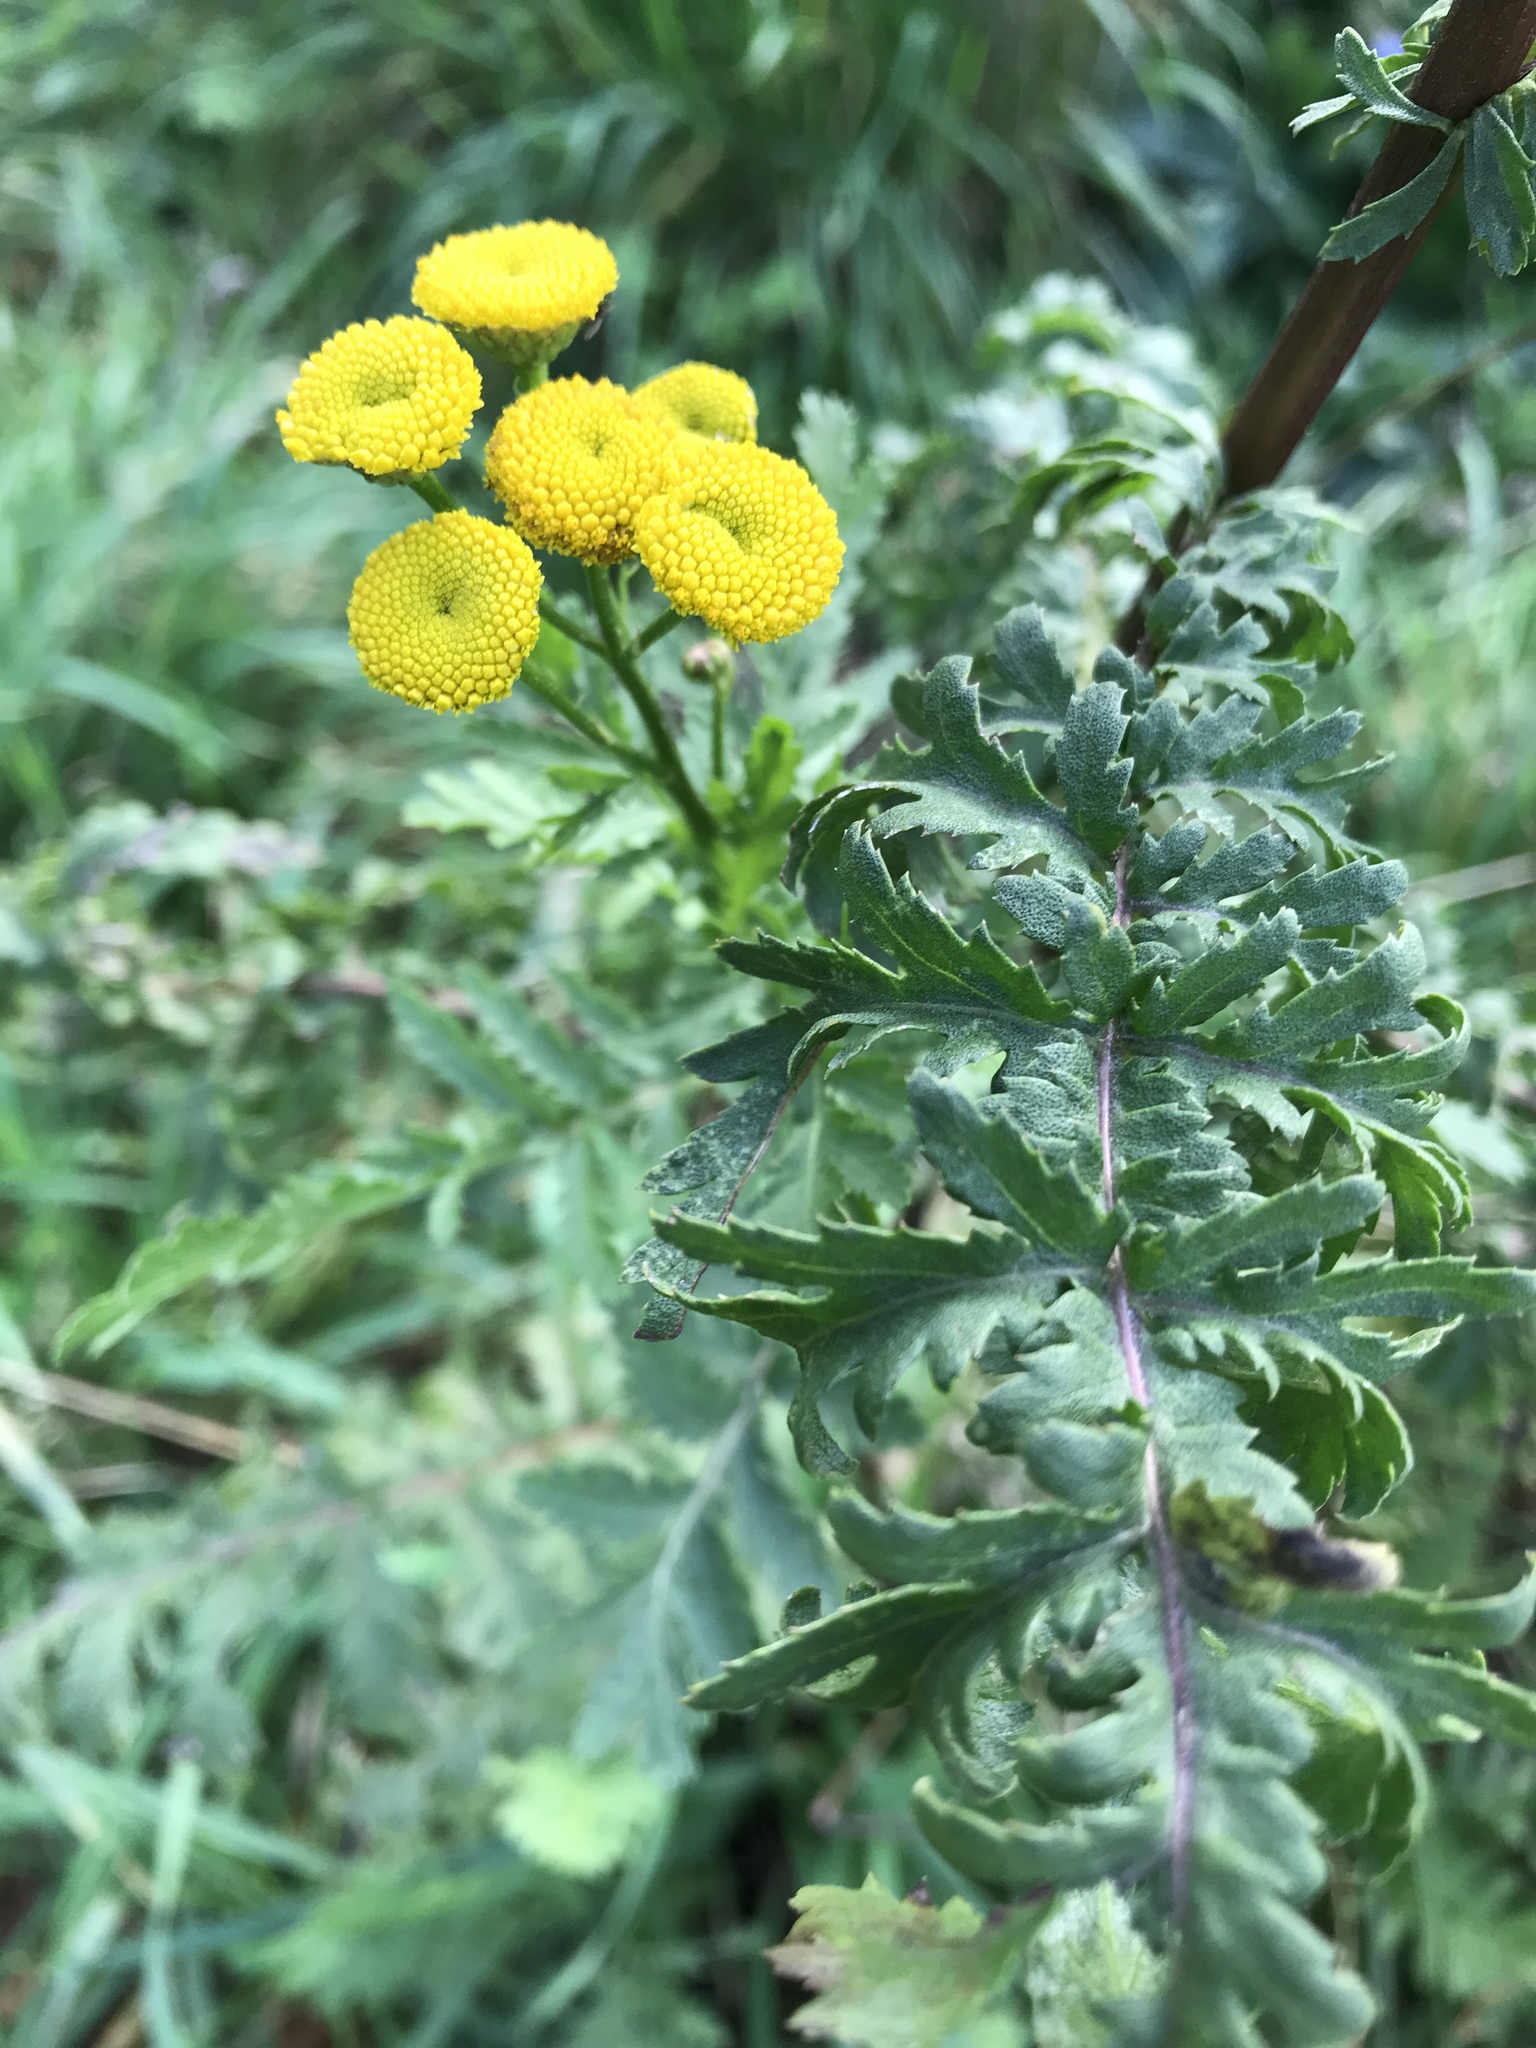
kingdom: Plantae
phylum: Tracheophyta
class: Magnoliopsida
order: Asterales
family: Asteraceae
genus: Tanacetum
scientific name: Tanacetum vulgare
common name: Common tansy
